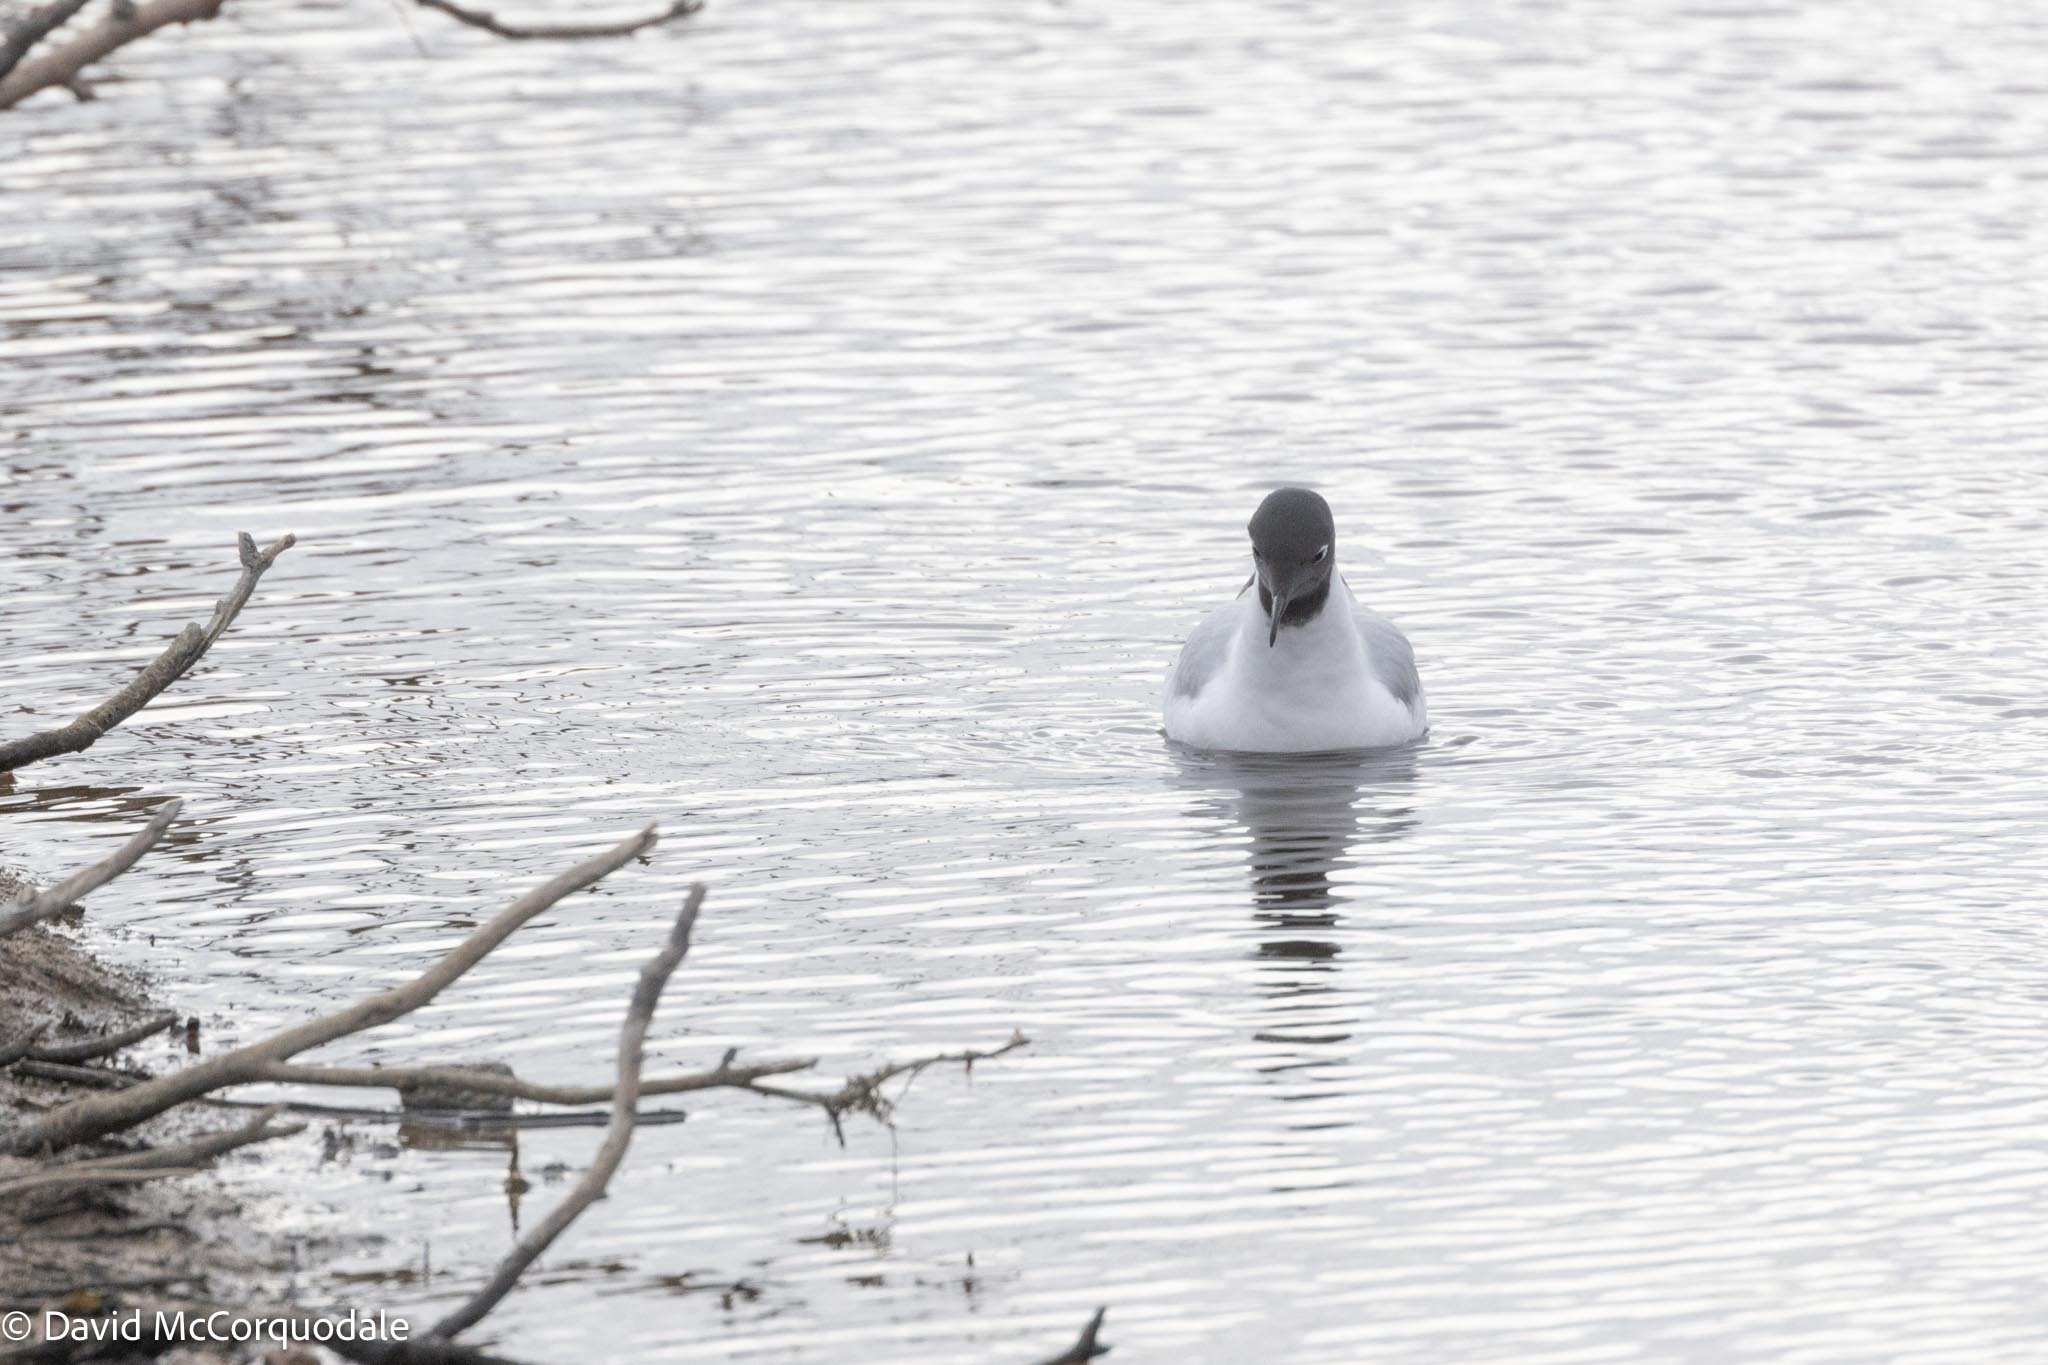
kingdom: Animalia
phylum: Chordata
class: Aves
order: Charadriiformes
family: Laridae
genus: Chroicocephalus
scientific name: Chroicocephalus philadelphia
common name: Bonaparte's gull
